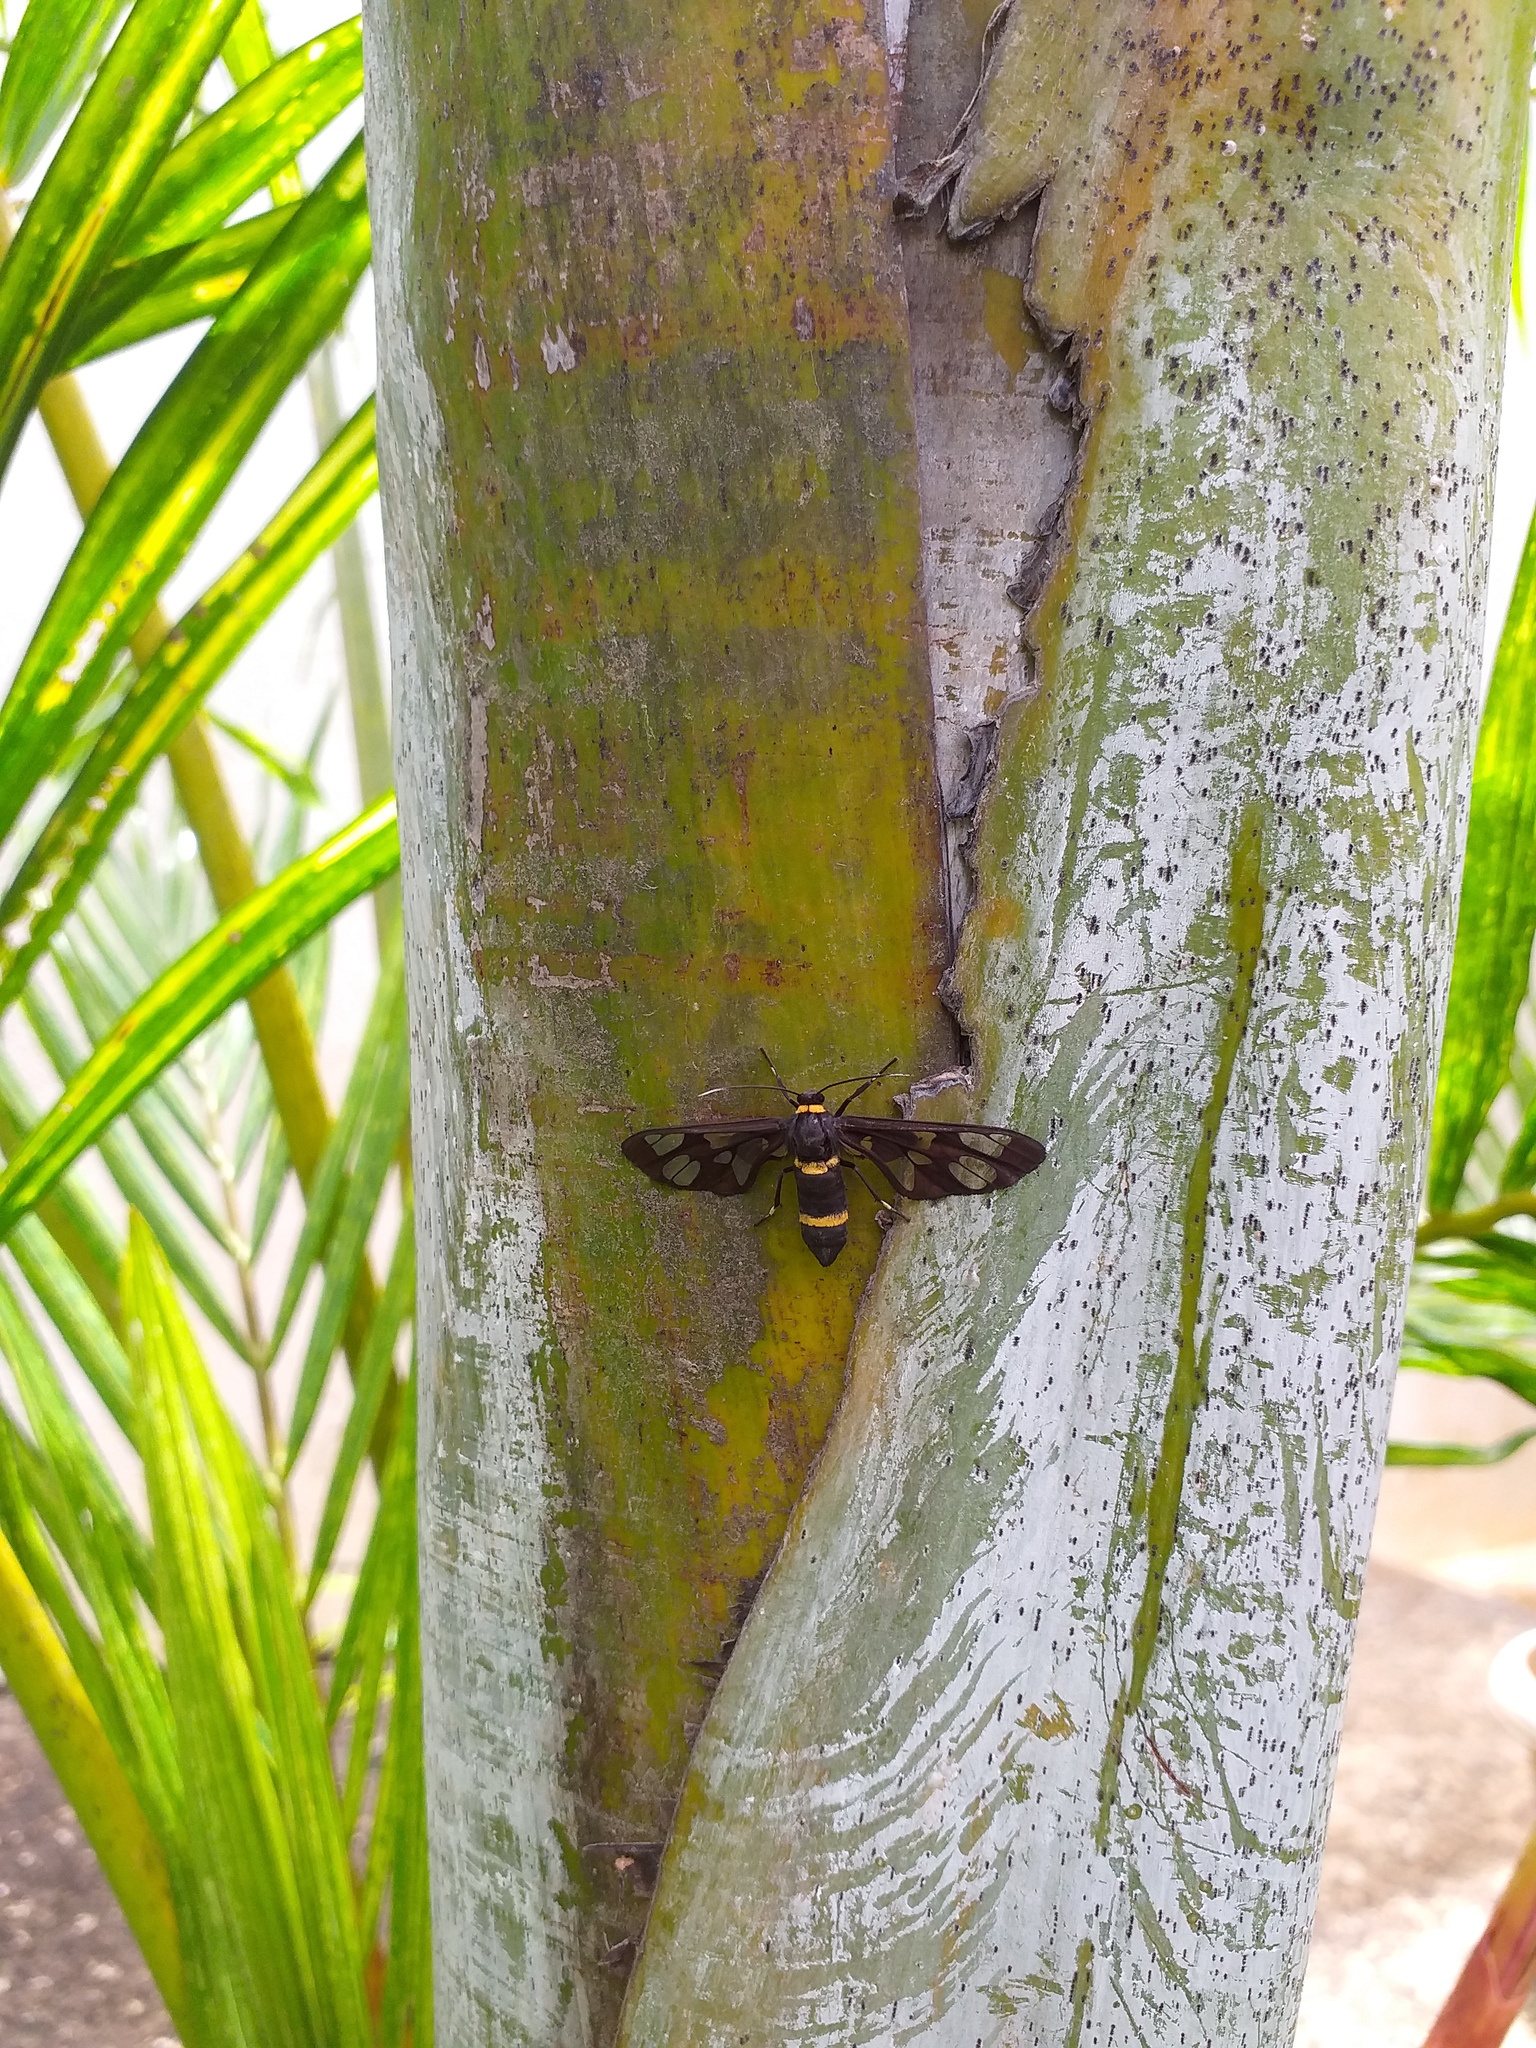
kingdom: Animalia
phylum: Arthropoda
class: Insecta
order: Lepidoptera
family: Erebidae
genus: Syntomoides
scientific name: Syntomoides imaon
